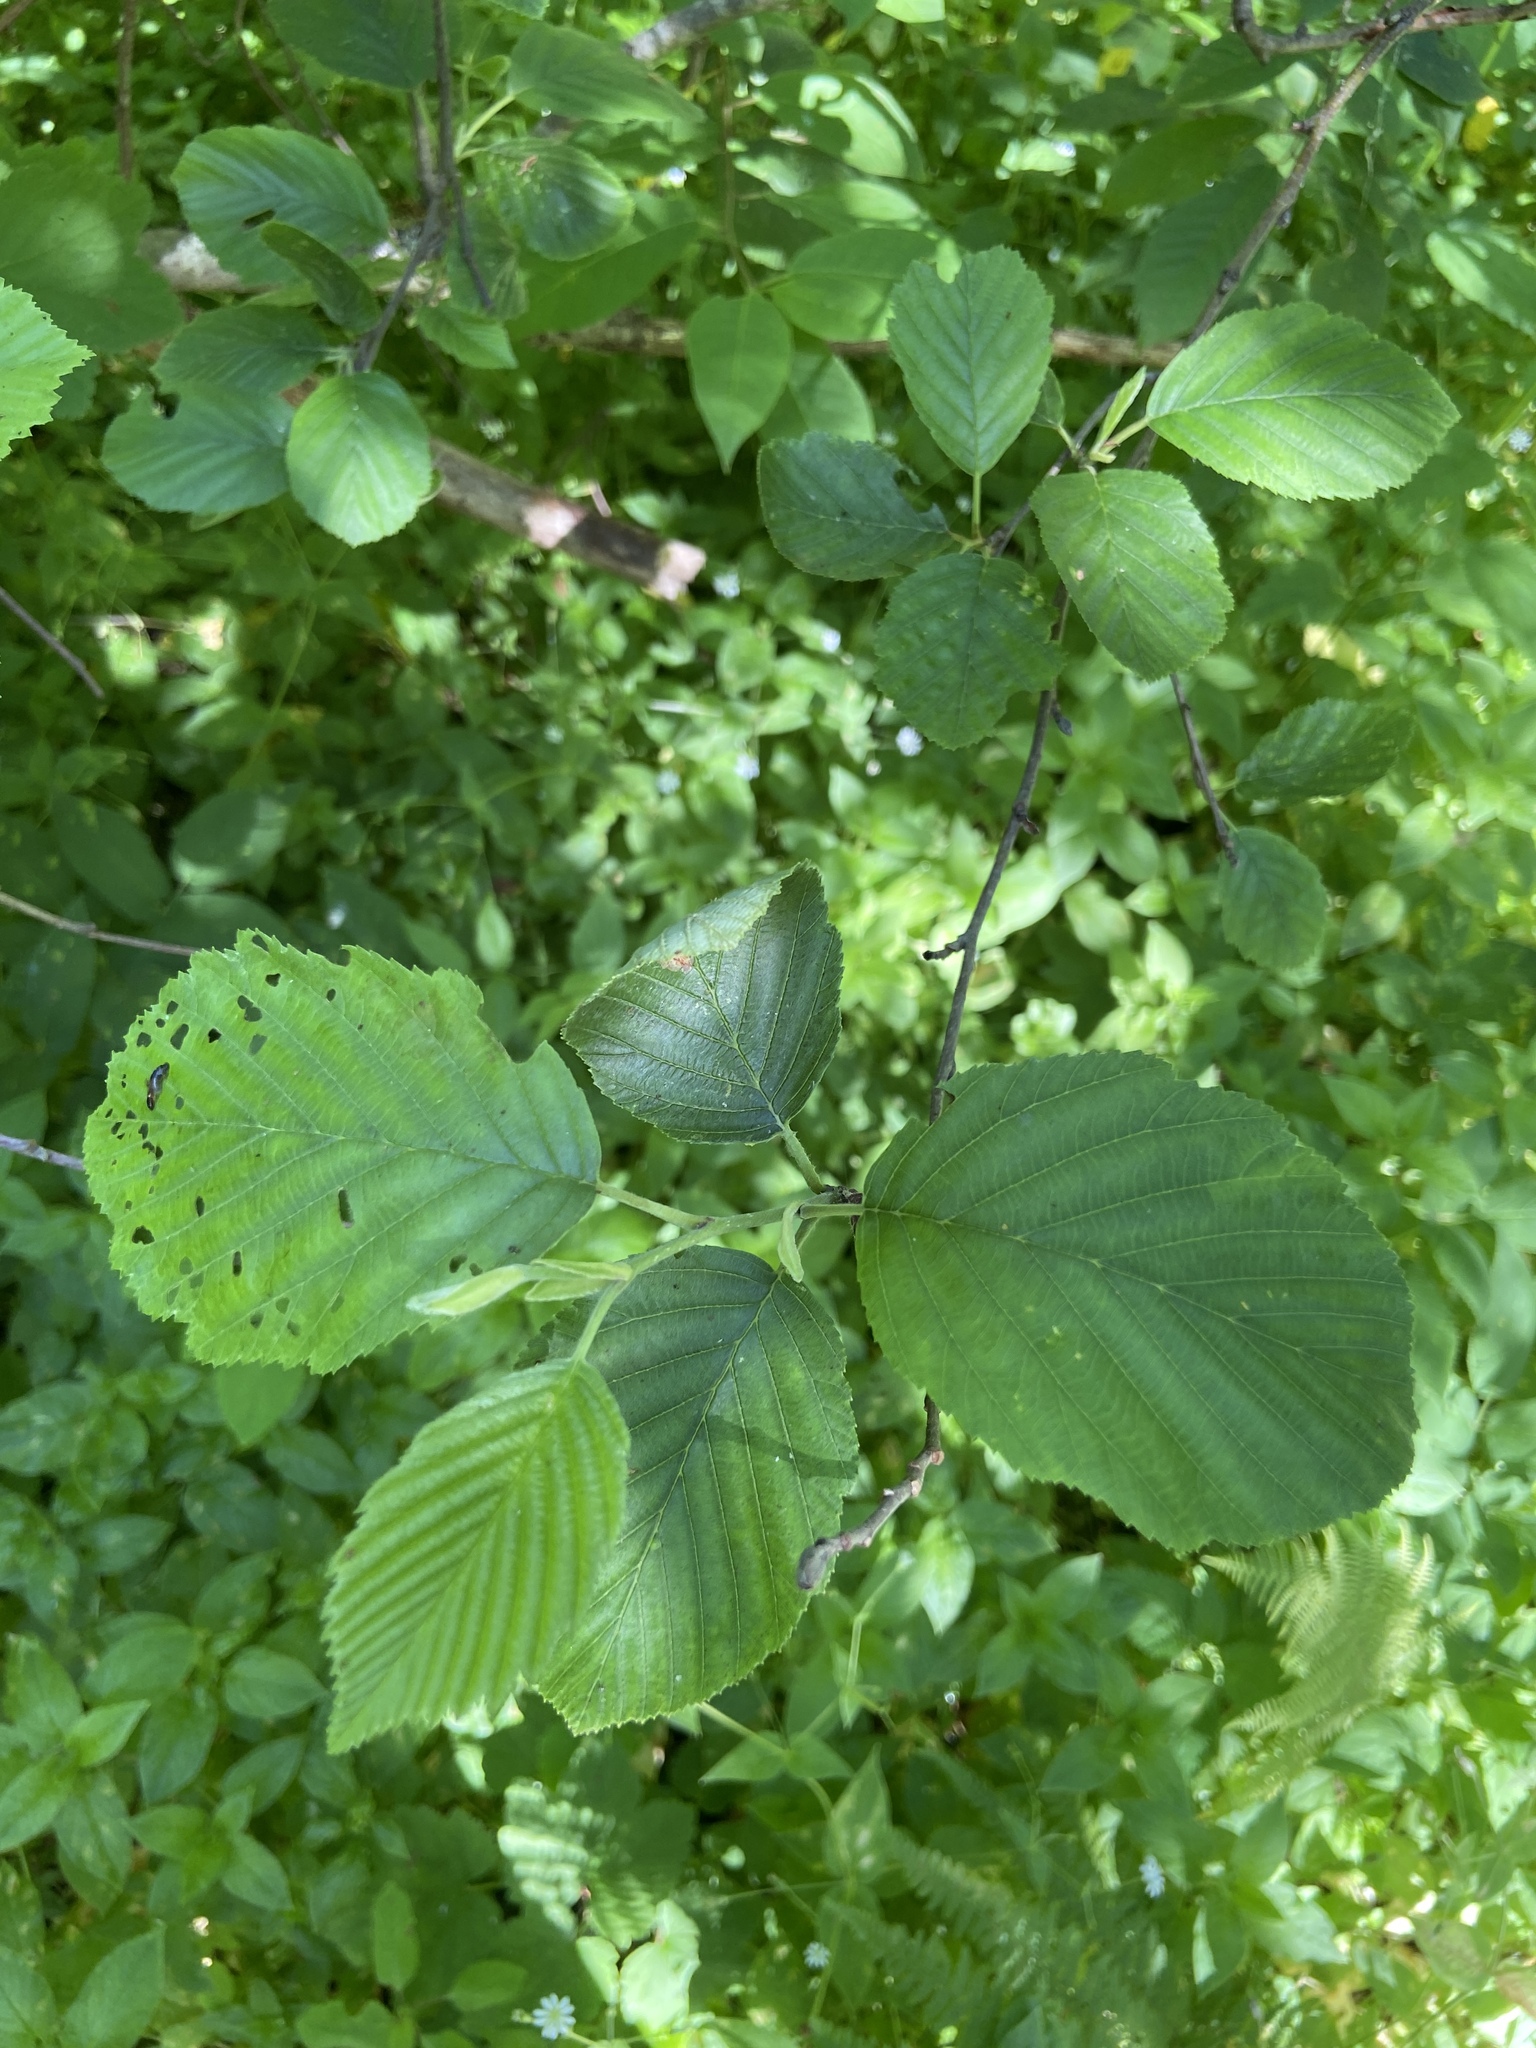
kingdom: Plantae
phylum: Tracheophyta
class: Magnoliopsida
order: Fagales
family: Betulaceae
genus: Alnus
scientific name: Alnus incana
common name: Grey alder
